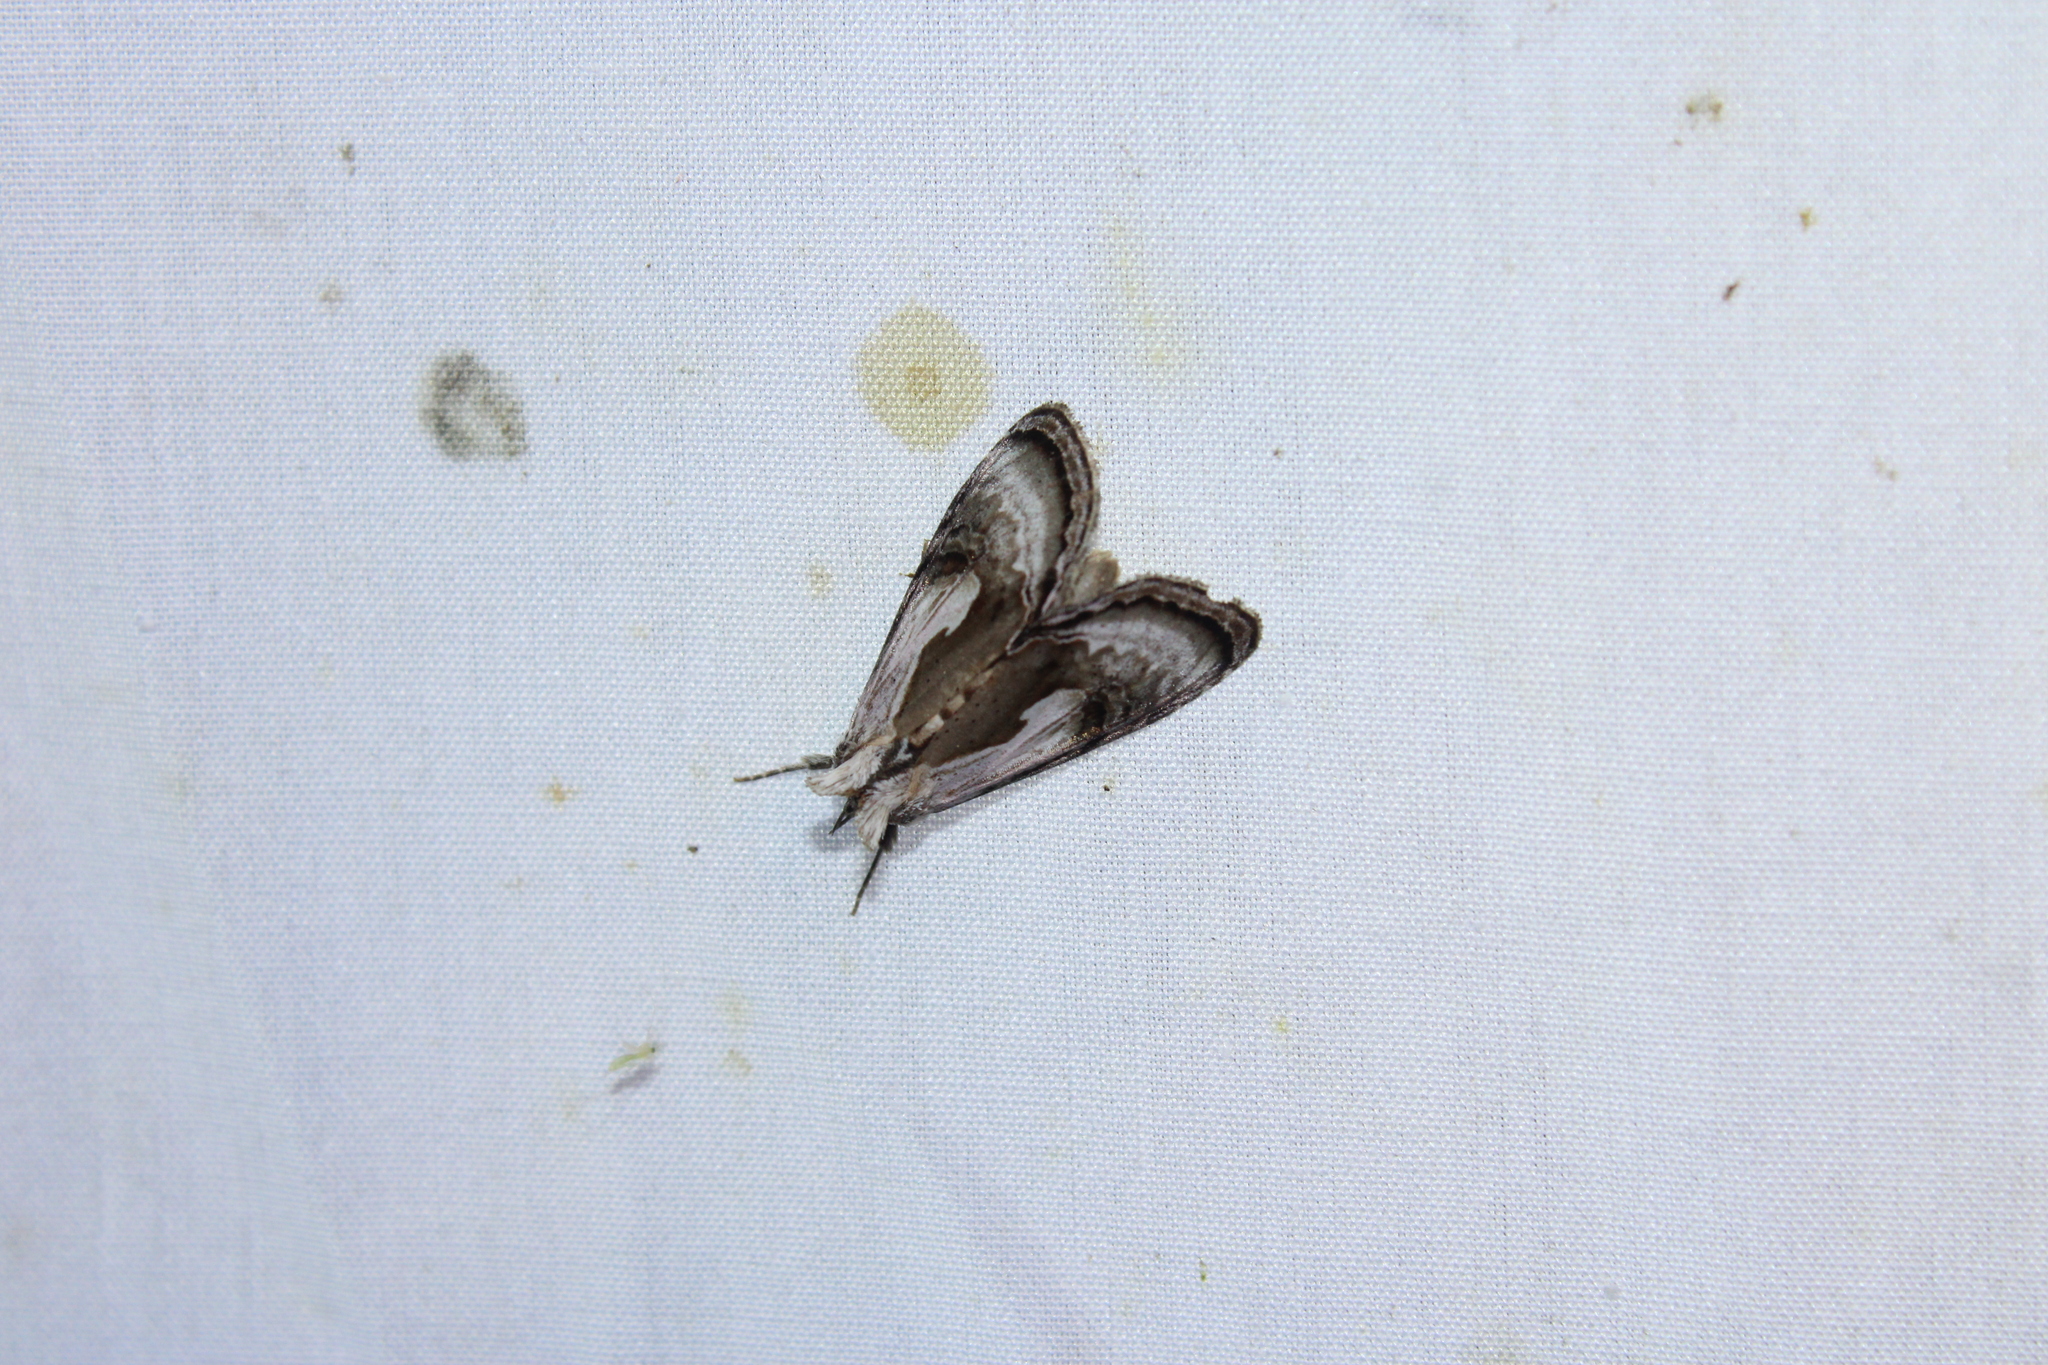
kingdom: Animalia
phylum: Arthropoda
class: Insecta
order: Lepidoptera
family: Noctuidae
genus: Chrysanympha
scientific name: Chrysanympha formosa
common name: Formosa looper moth
